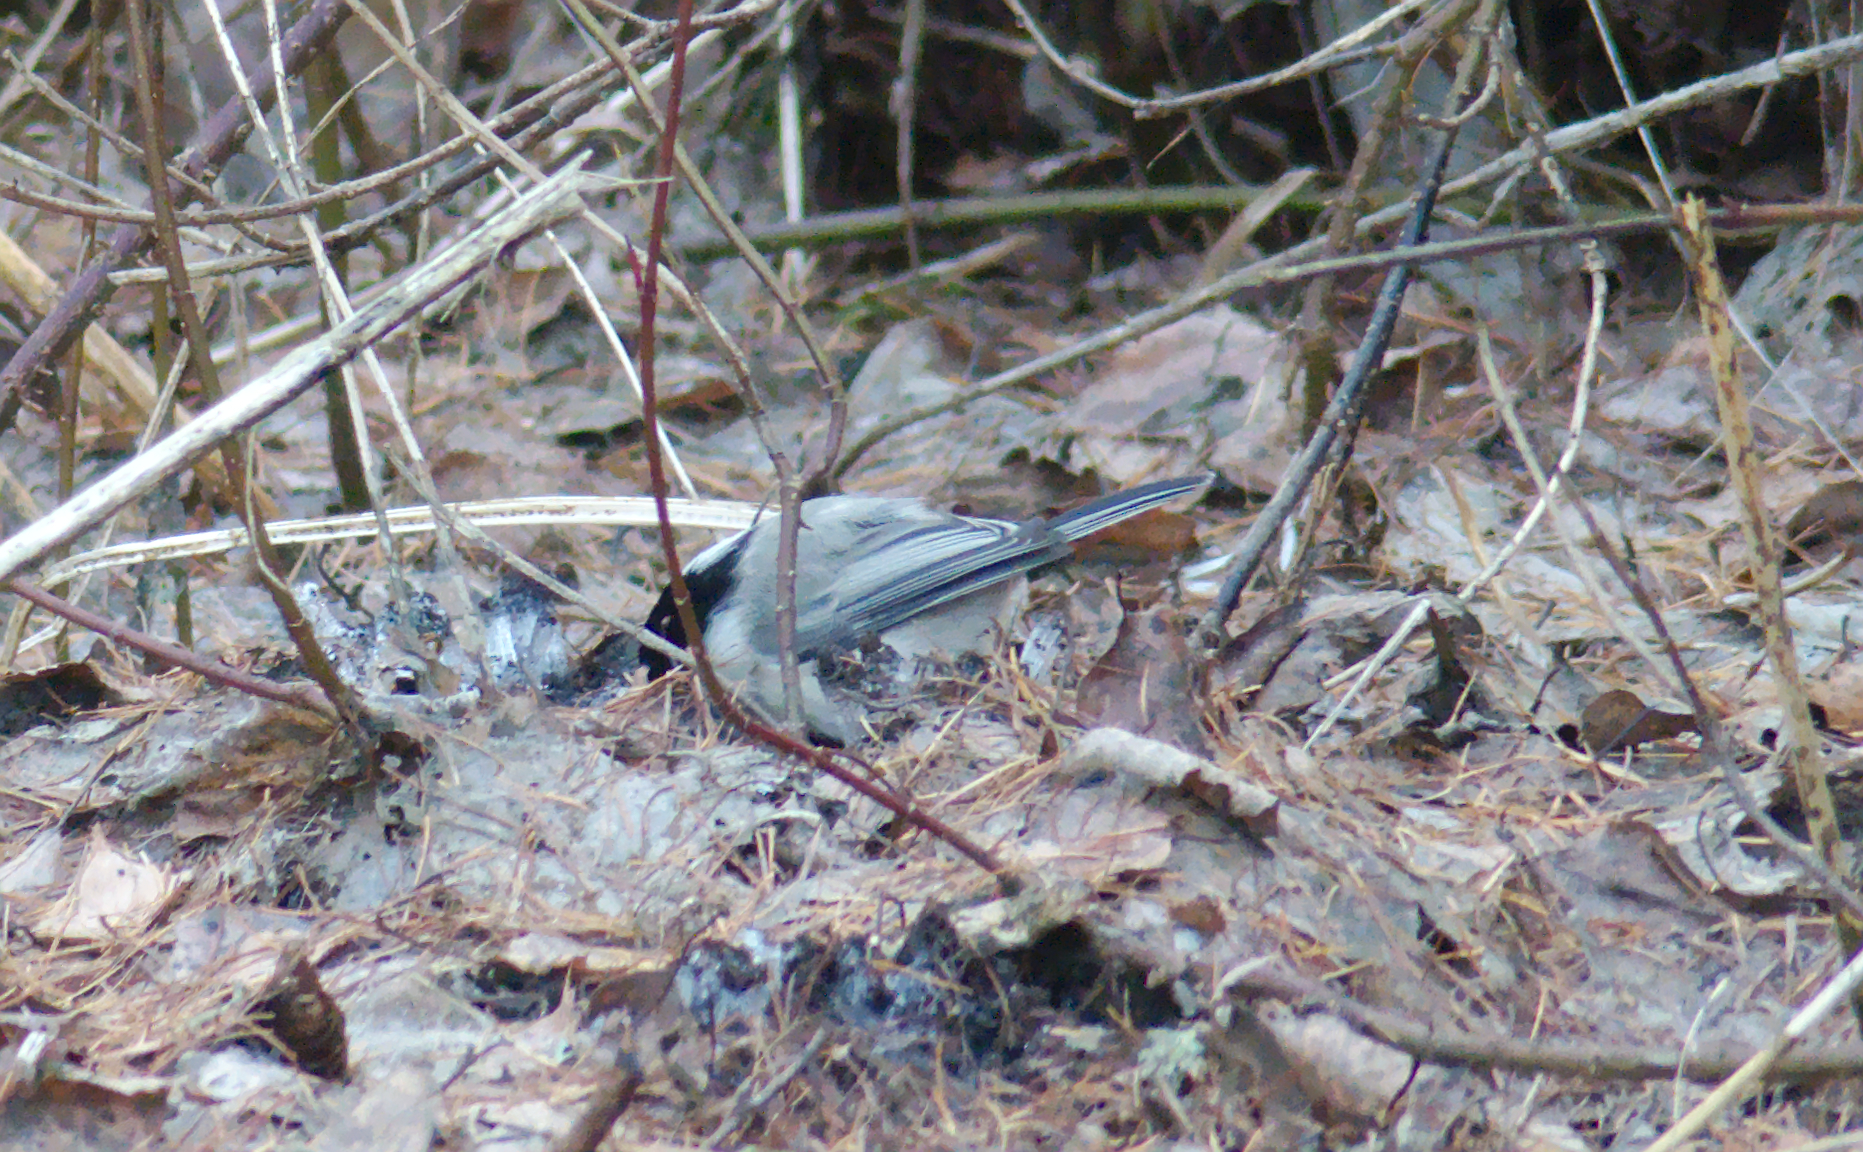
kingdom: Animalia
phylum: Chordata
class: Aves
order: Passeriformes
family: Paridae
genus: Poecile
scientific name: Poecile montanus
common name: Willow tit
